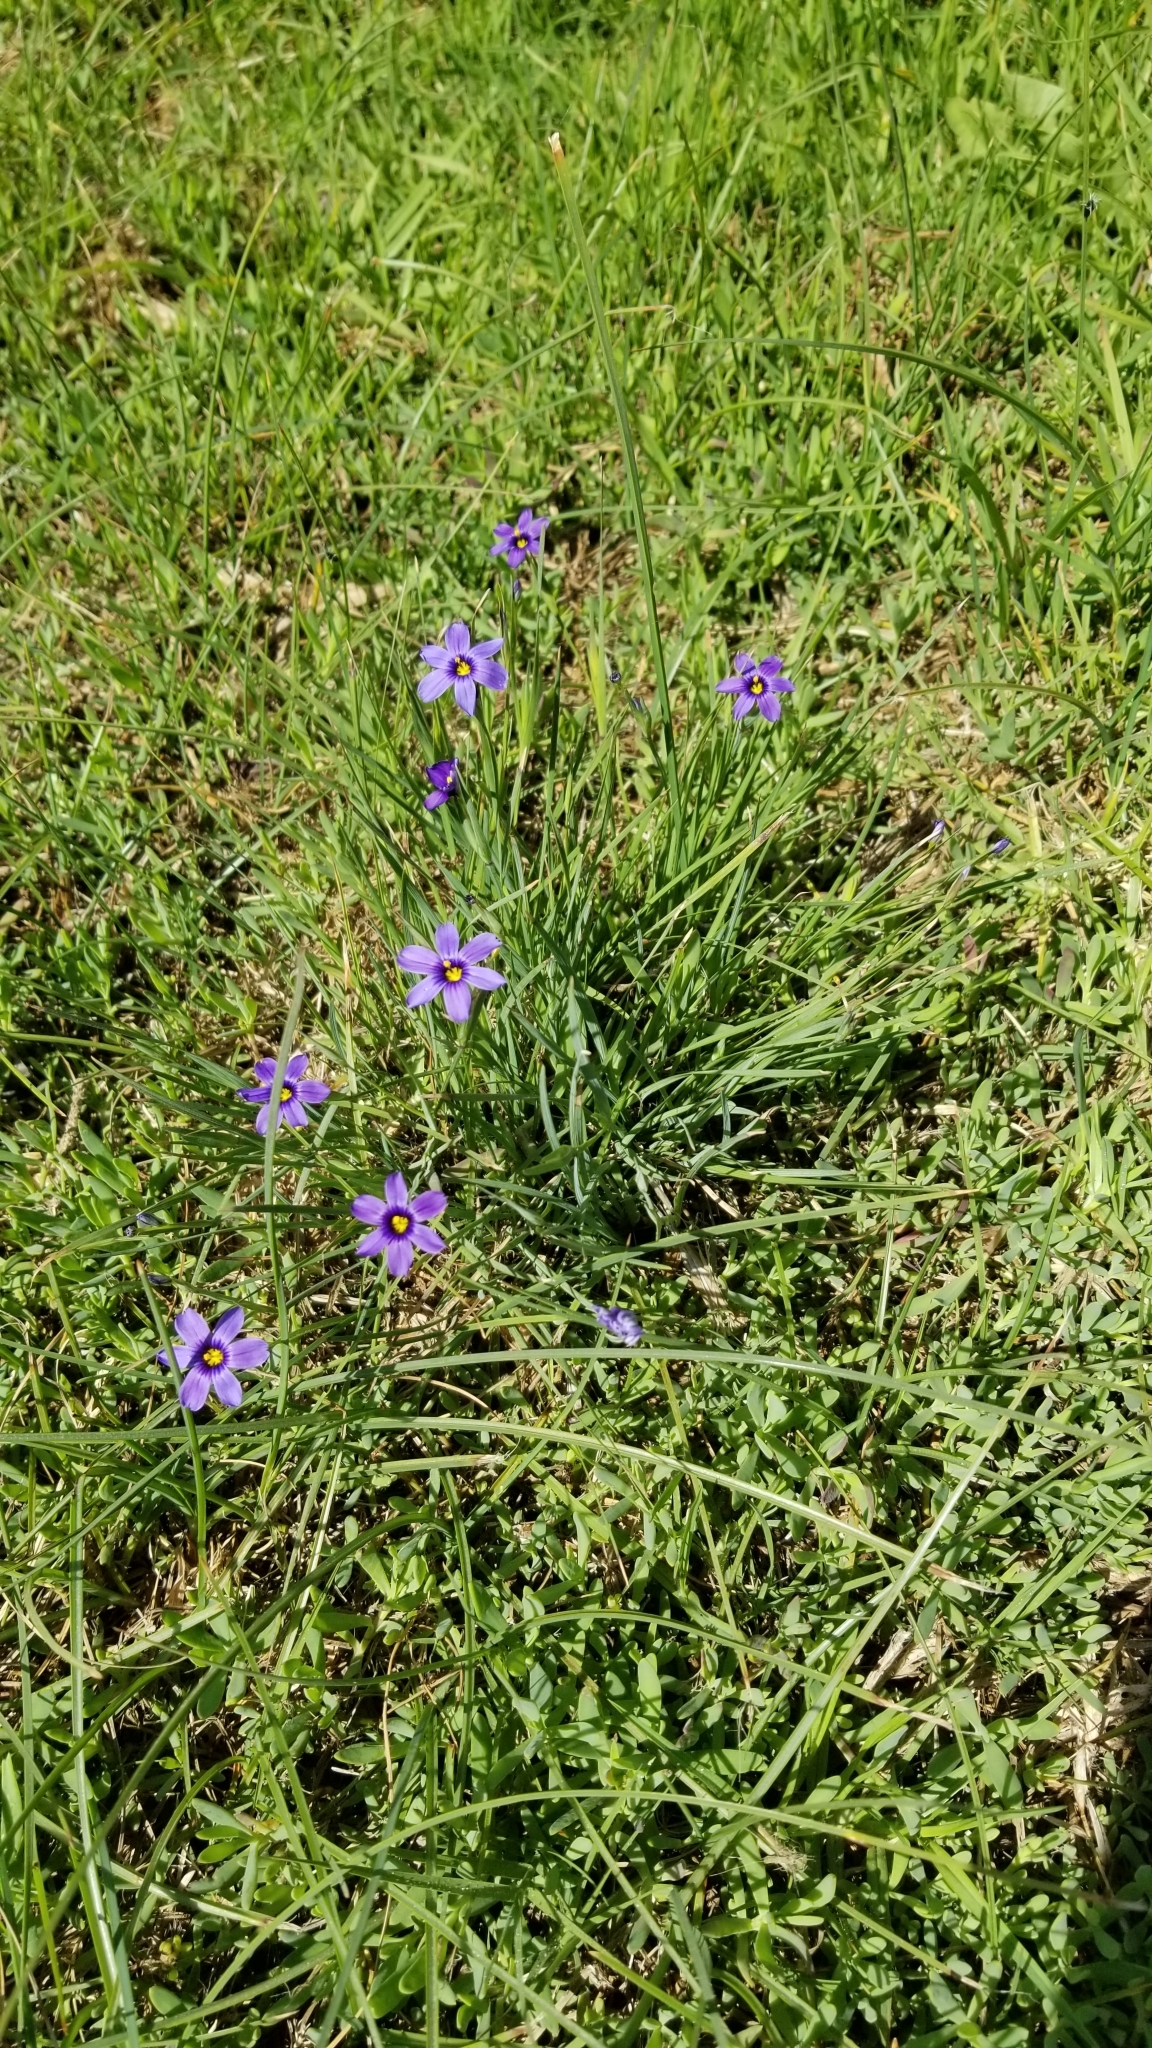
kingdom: Plantae
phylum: Tracheophyta
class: Liliopsida
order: Asparagales
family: Iridaceae
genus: Sisyrinchium
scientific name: Sisyrinchium bellum
